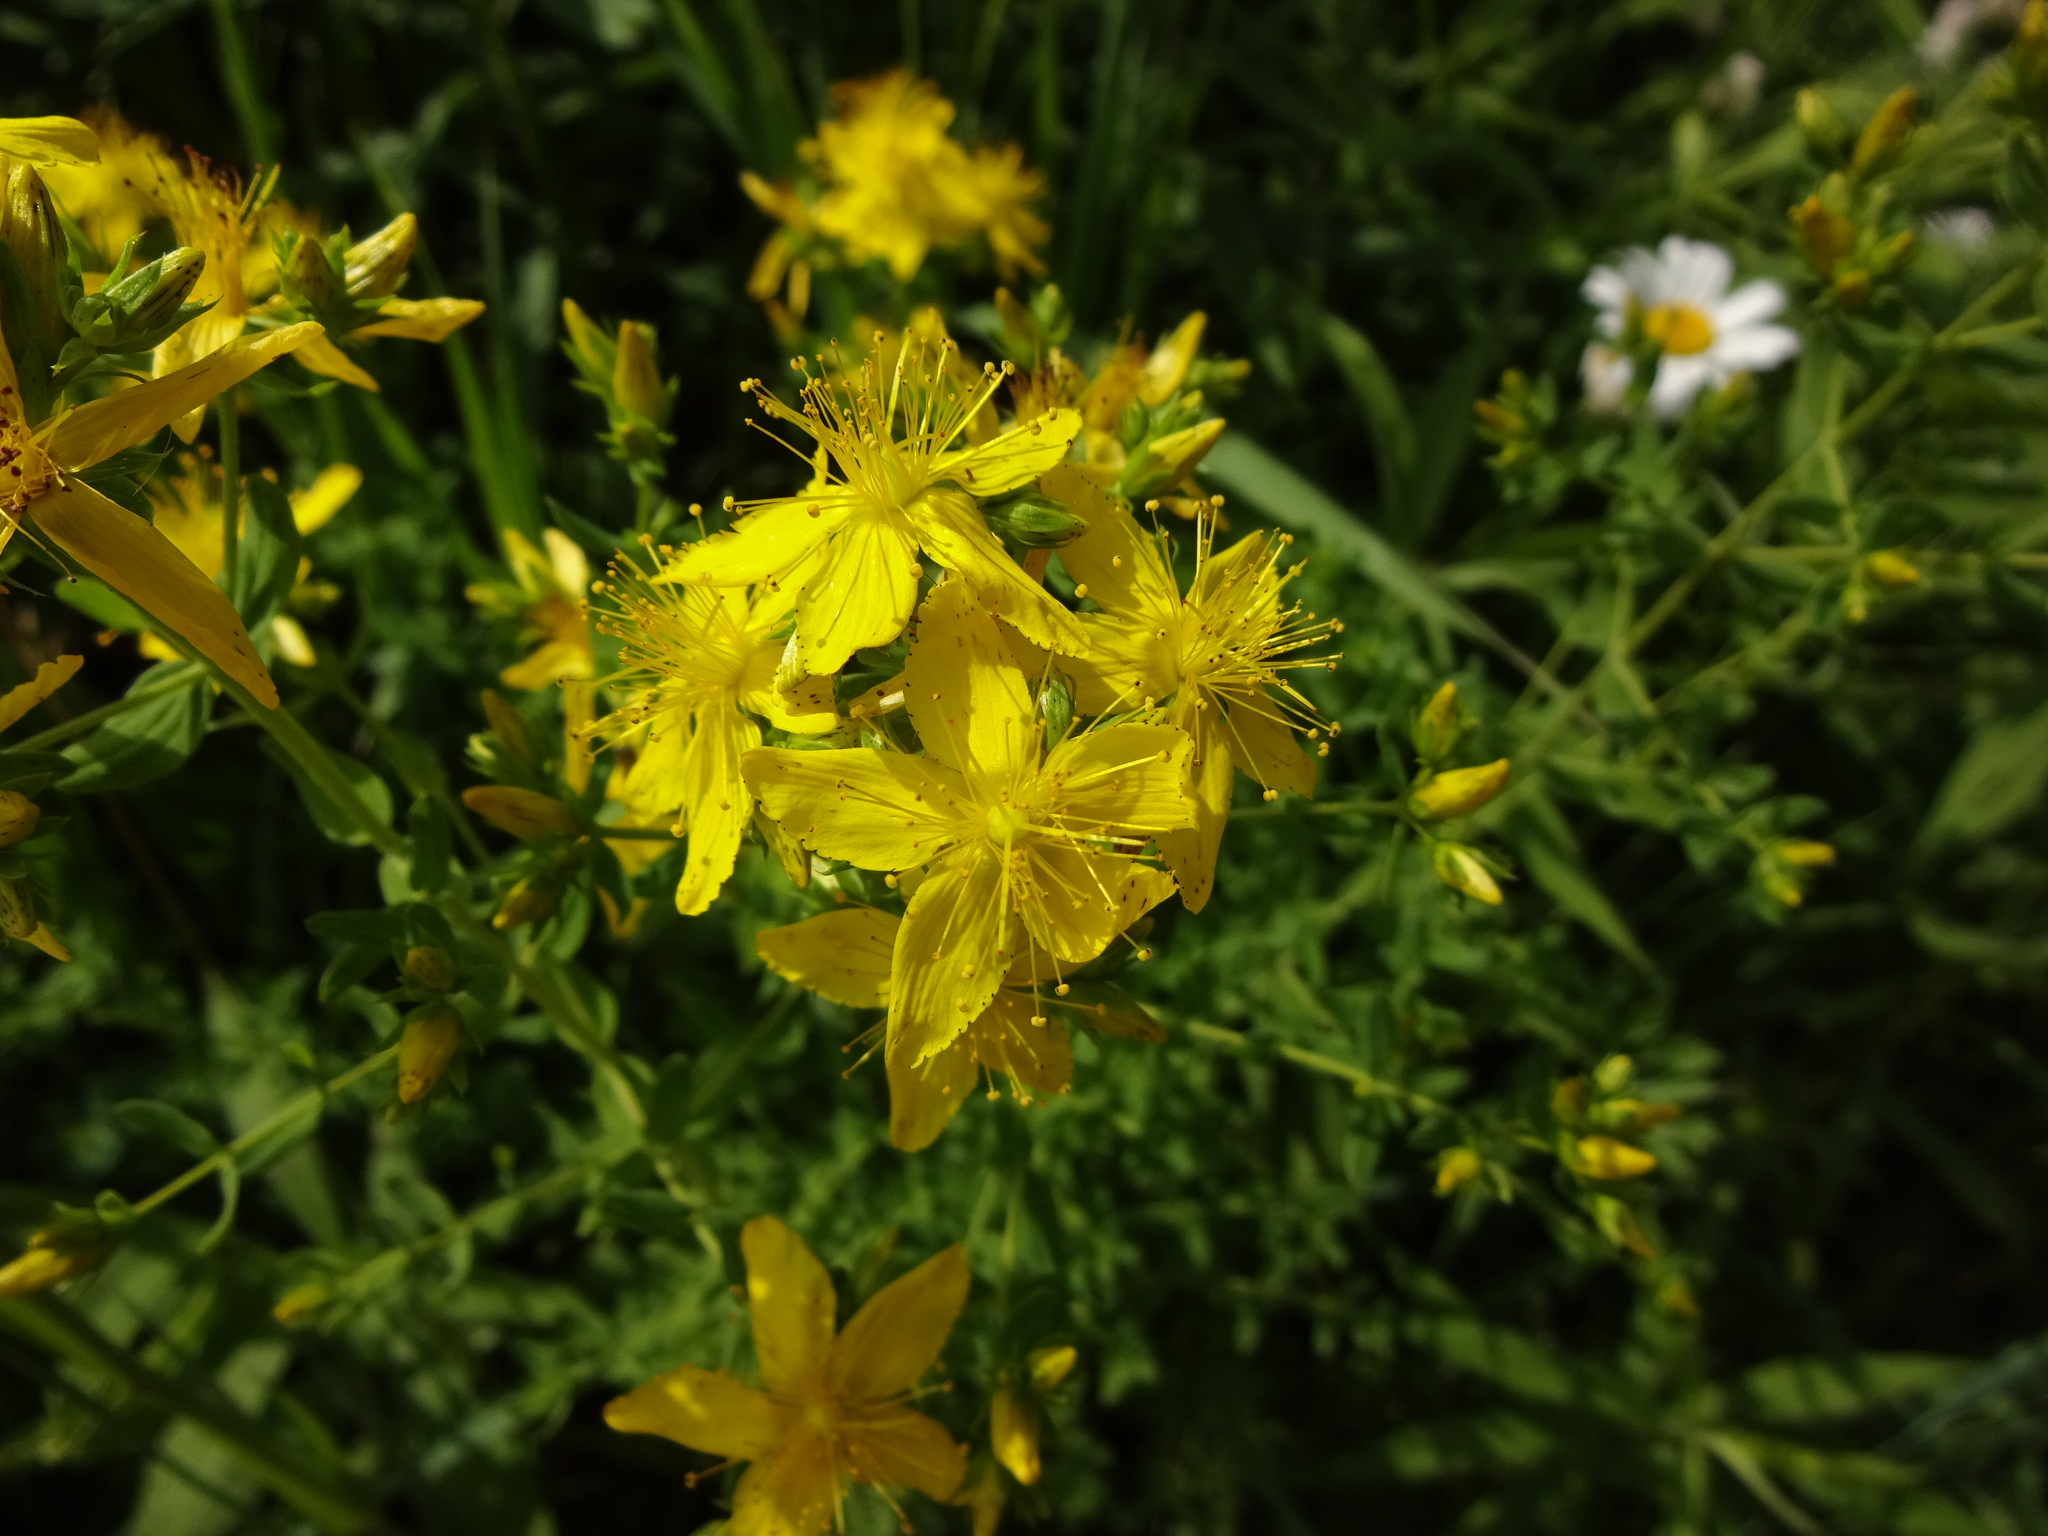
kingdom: Plantae
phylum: Tracheophyta
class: Magnoliopsida
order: Malpighiales
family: Hypericaceae
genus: Hypericum
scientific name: Hypericum perforatum
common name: Common st. johnswort
